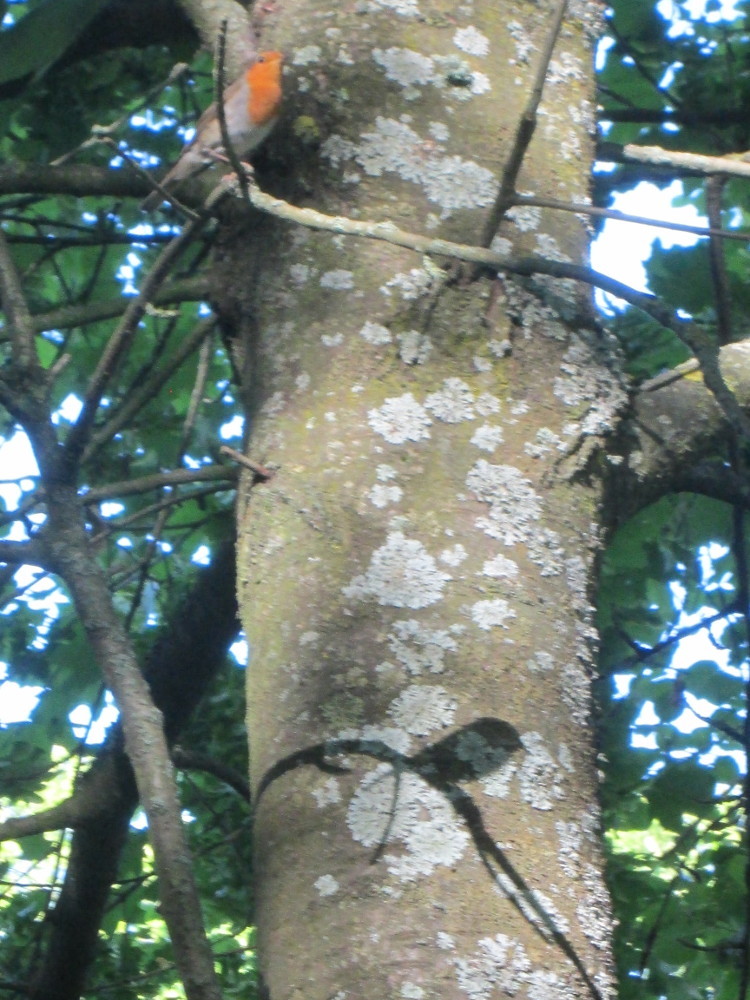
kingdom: Animalia
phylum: Chordata
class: Aves
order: Passeriformes
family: Muscicapidae
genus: Erithacus
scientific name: Erithacus rubecula
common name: European robin
